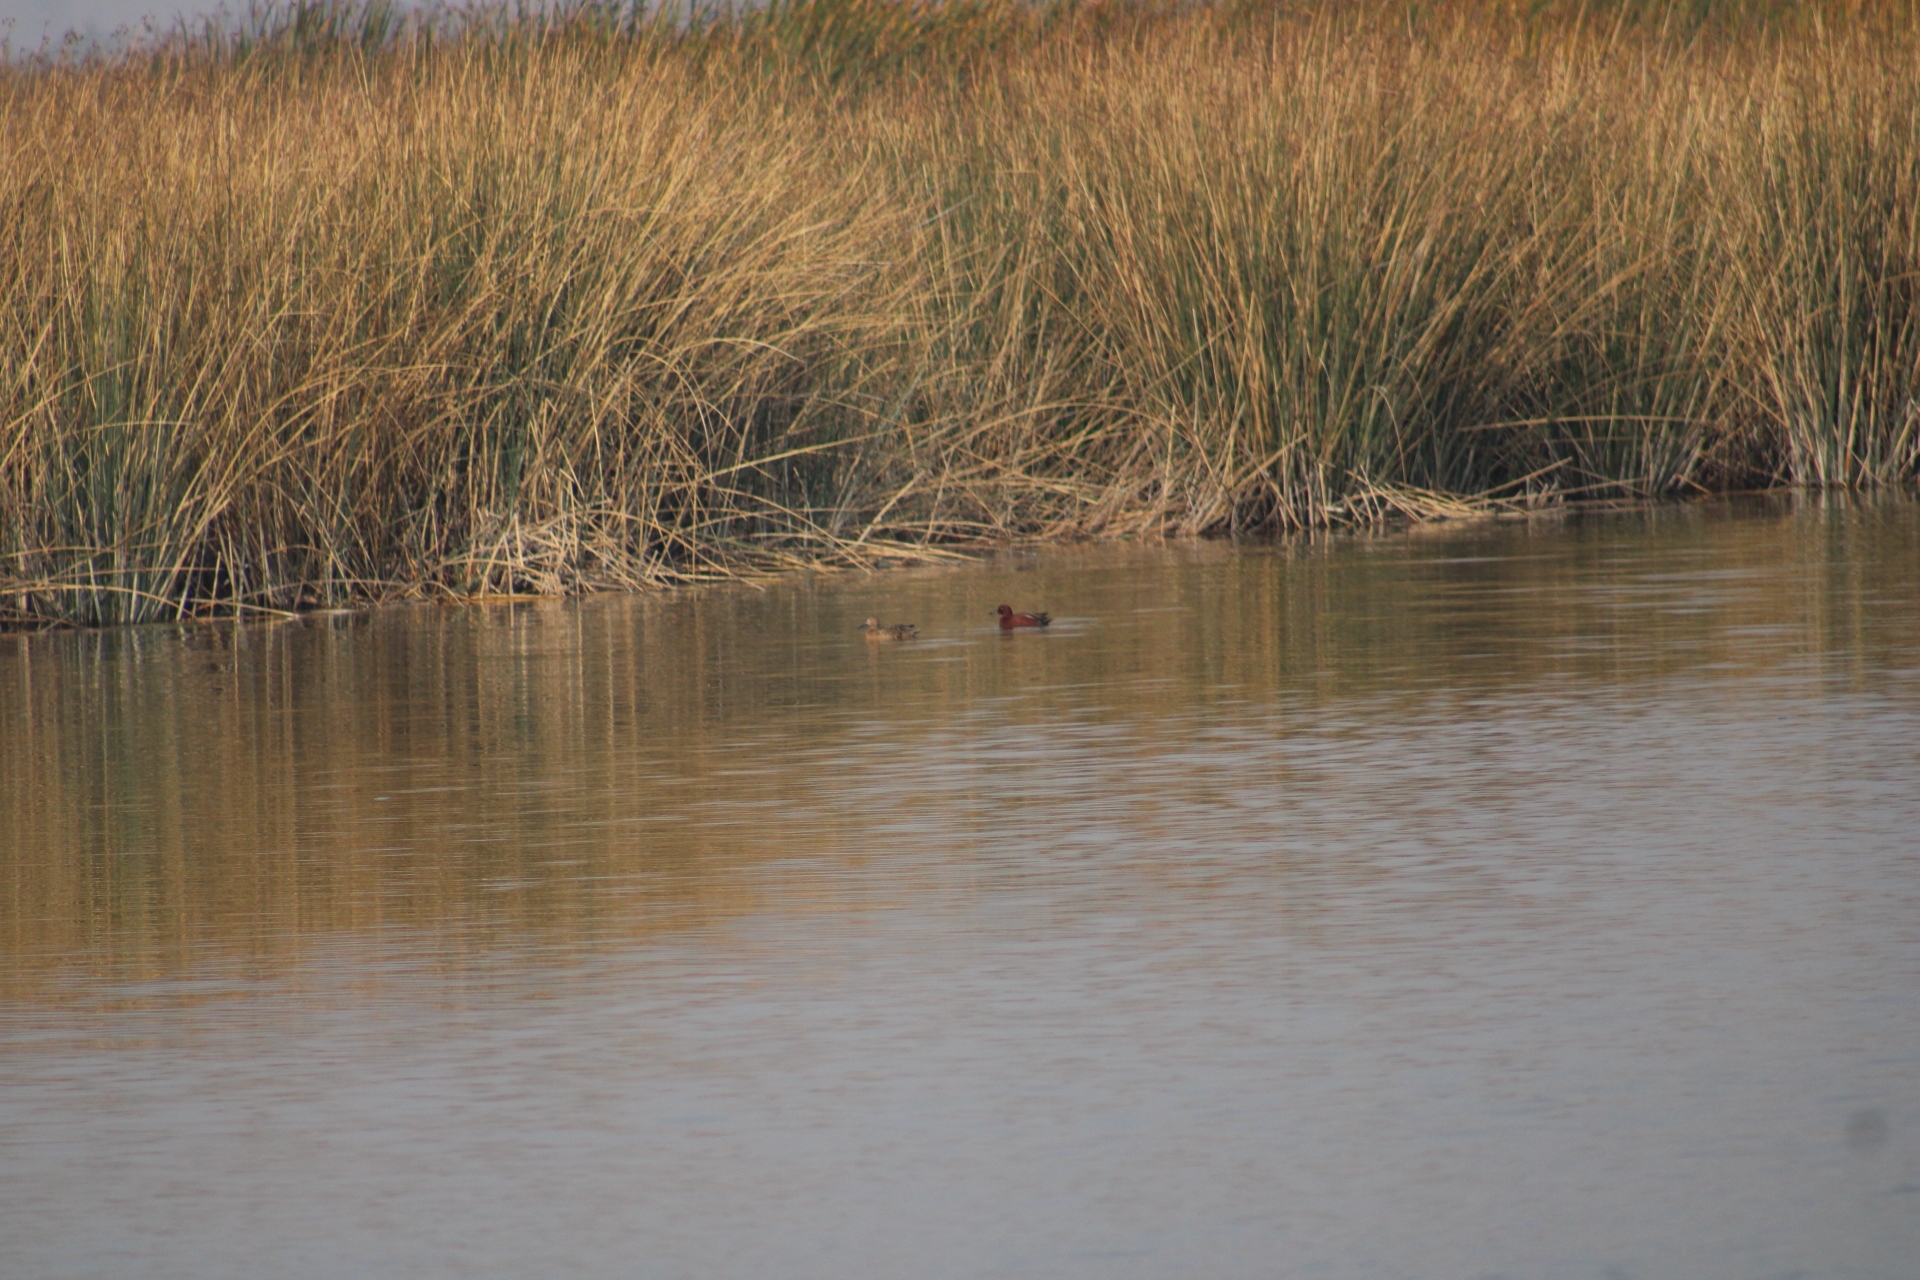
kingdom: Animalia
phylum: Chordata
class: Aves
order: Anseriformes
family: Anatidae
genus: Spatula
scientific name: Spatula cyanoptera
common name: Cinnamon teal
